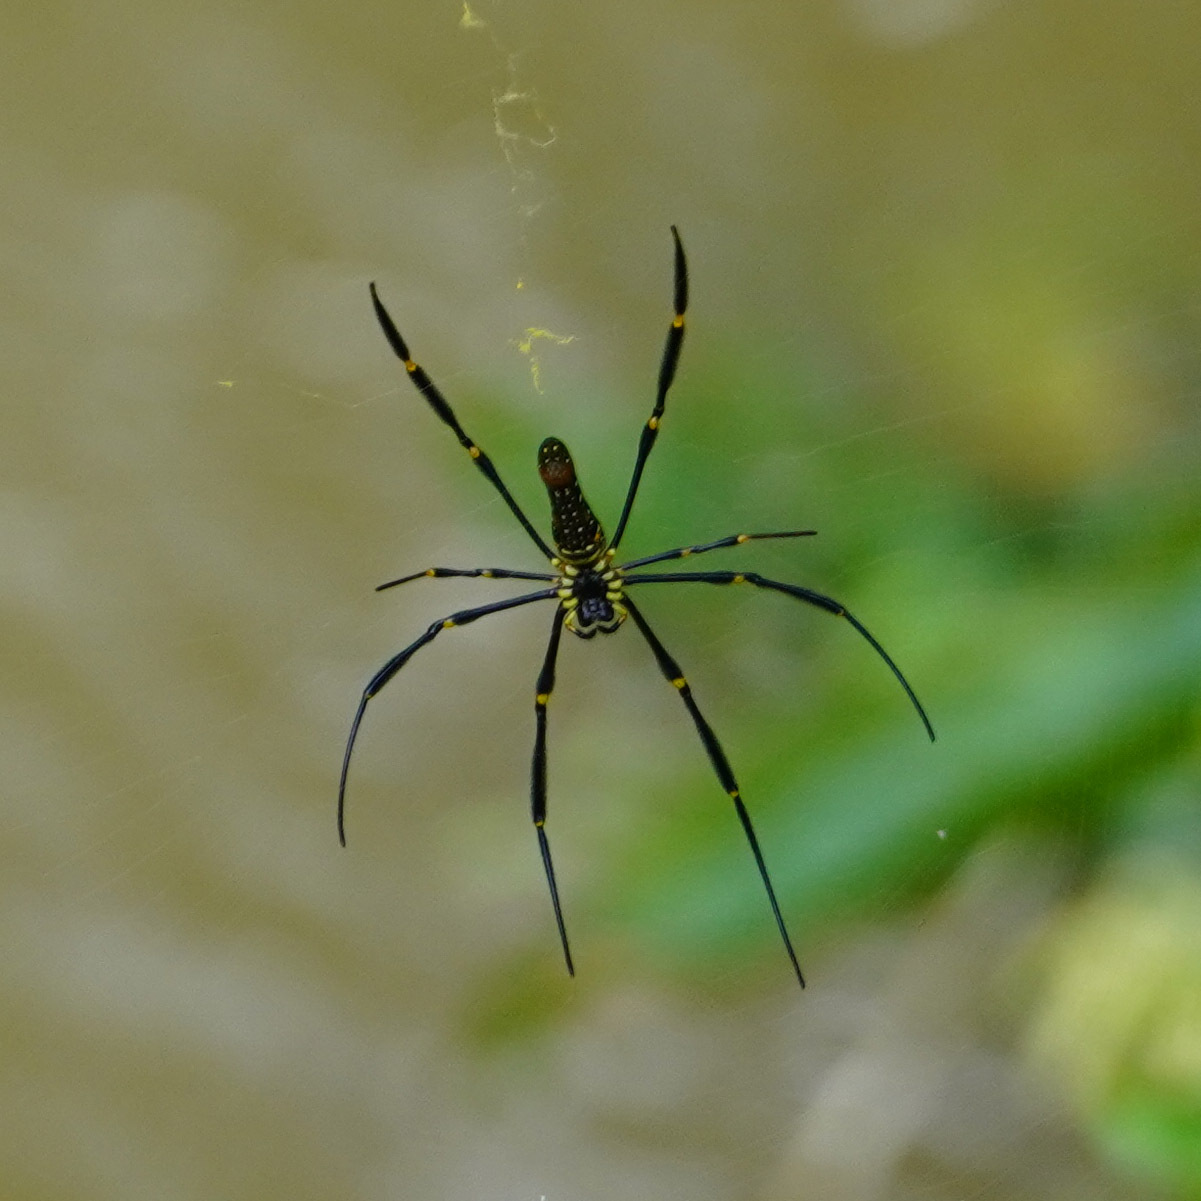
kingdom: Animalia
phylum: Arthropoda
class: Arachnida
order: Araneae
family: Araneidae
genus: Nephila
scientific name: Nephila pilipes
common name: Giant golden orb weaver
